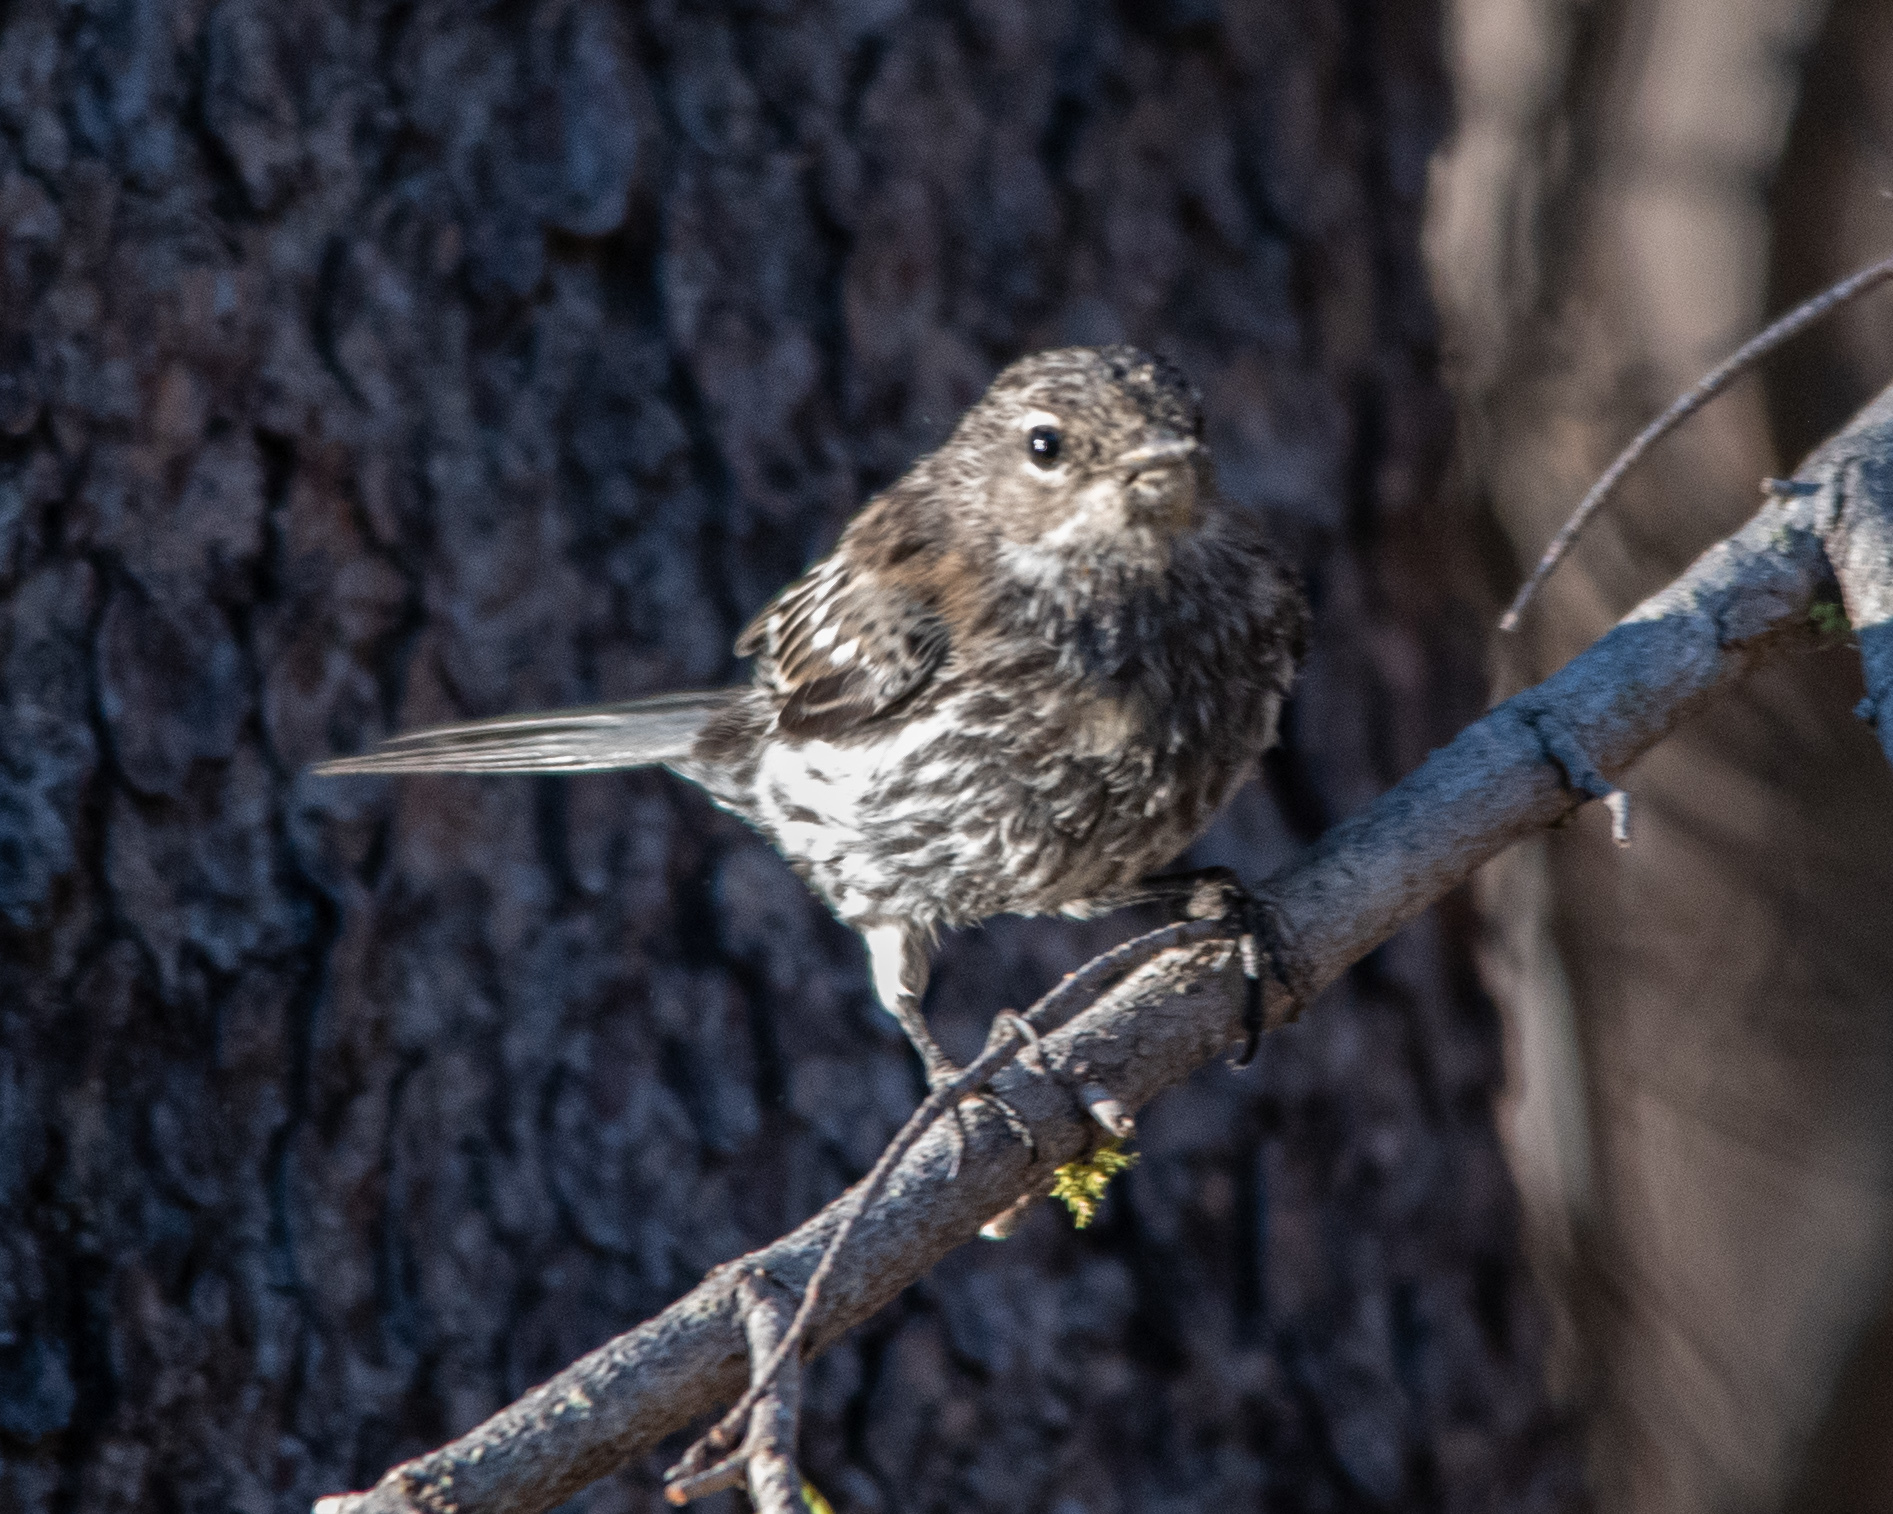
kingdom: Animalia
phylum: Chordata
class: Aves
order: Passeriformes
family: Parulidae
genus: Setophaga
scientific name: Setophaga auduboni
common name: Audubon's warbler
